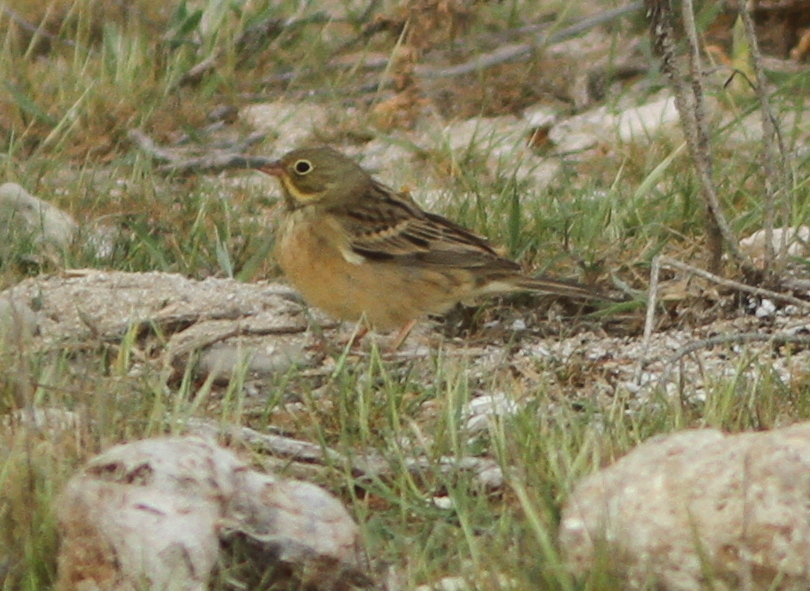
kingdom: Animalia
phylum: Chordata
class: Aves
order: Passeriformes
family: Emberizidae
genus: Emberiza
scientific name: Emberiza hortulana
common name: Ortolan bunting
